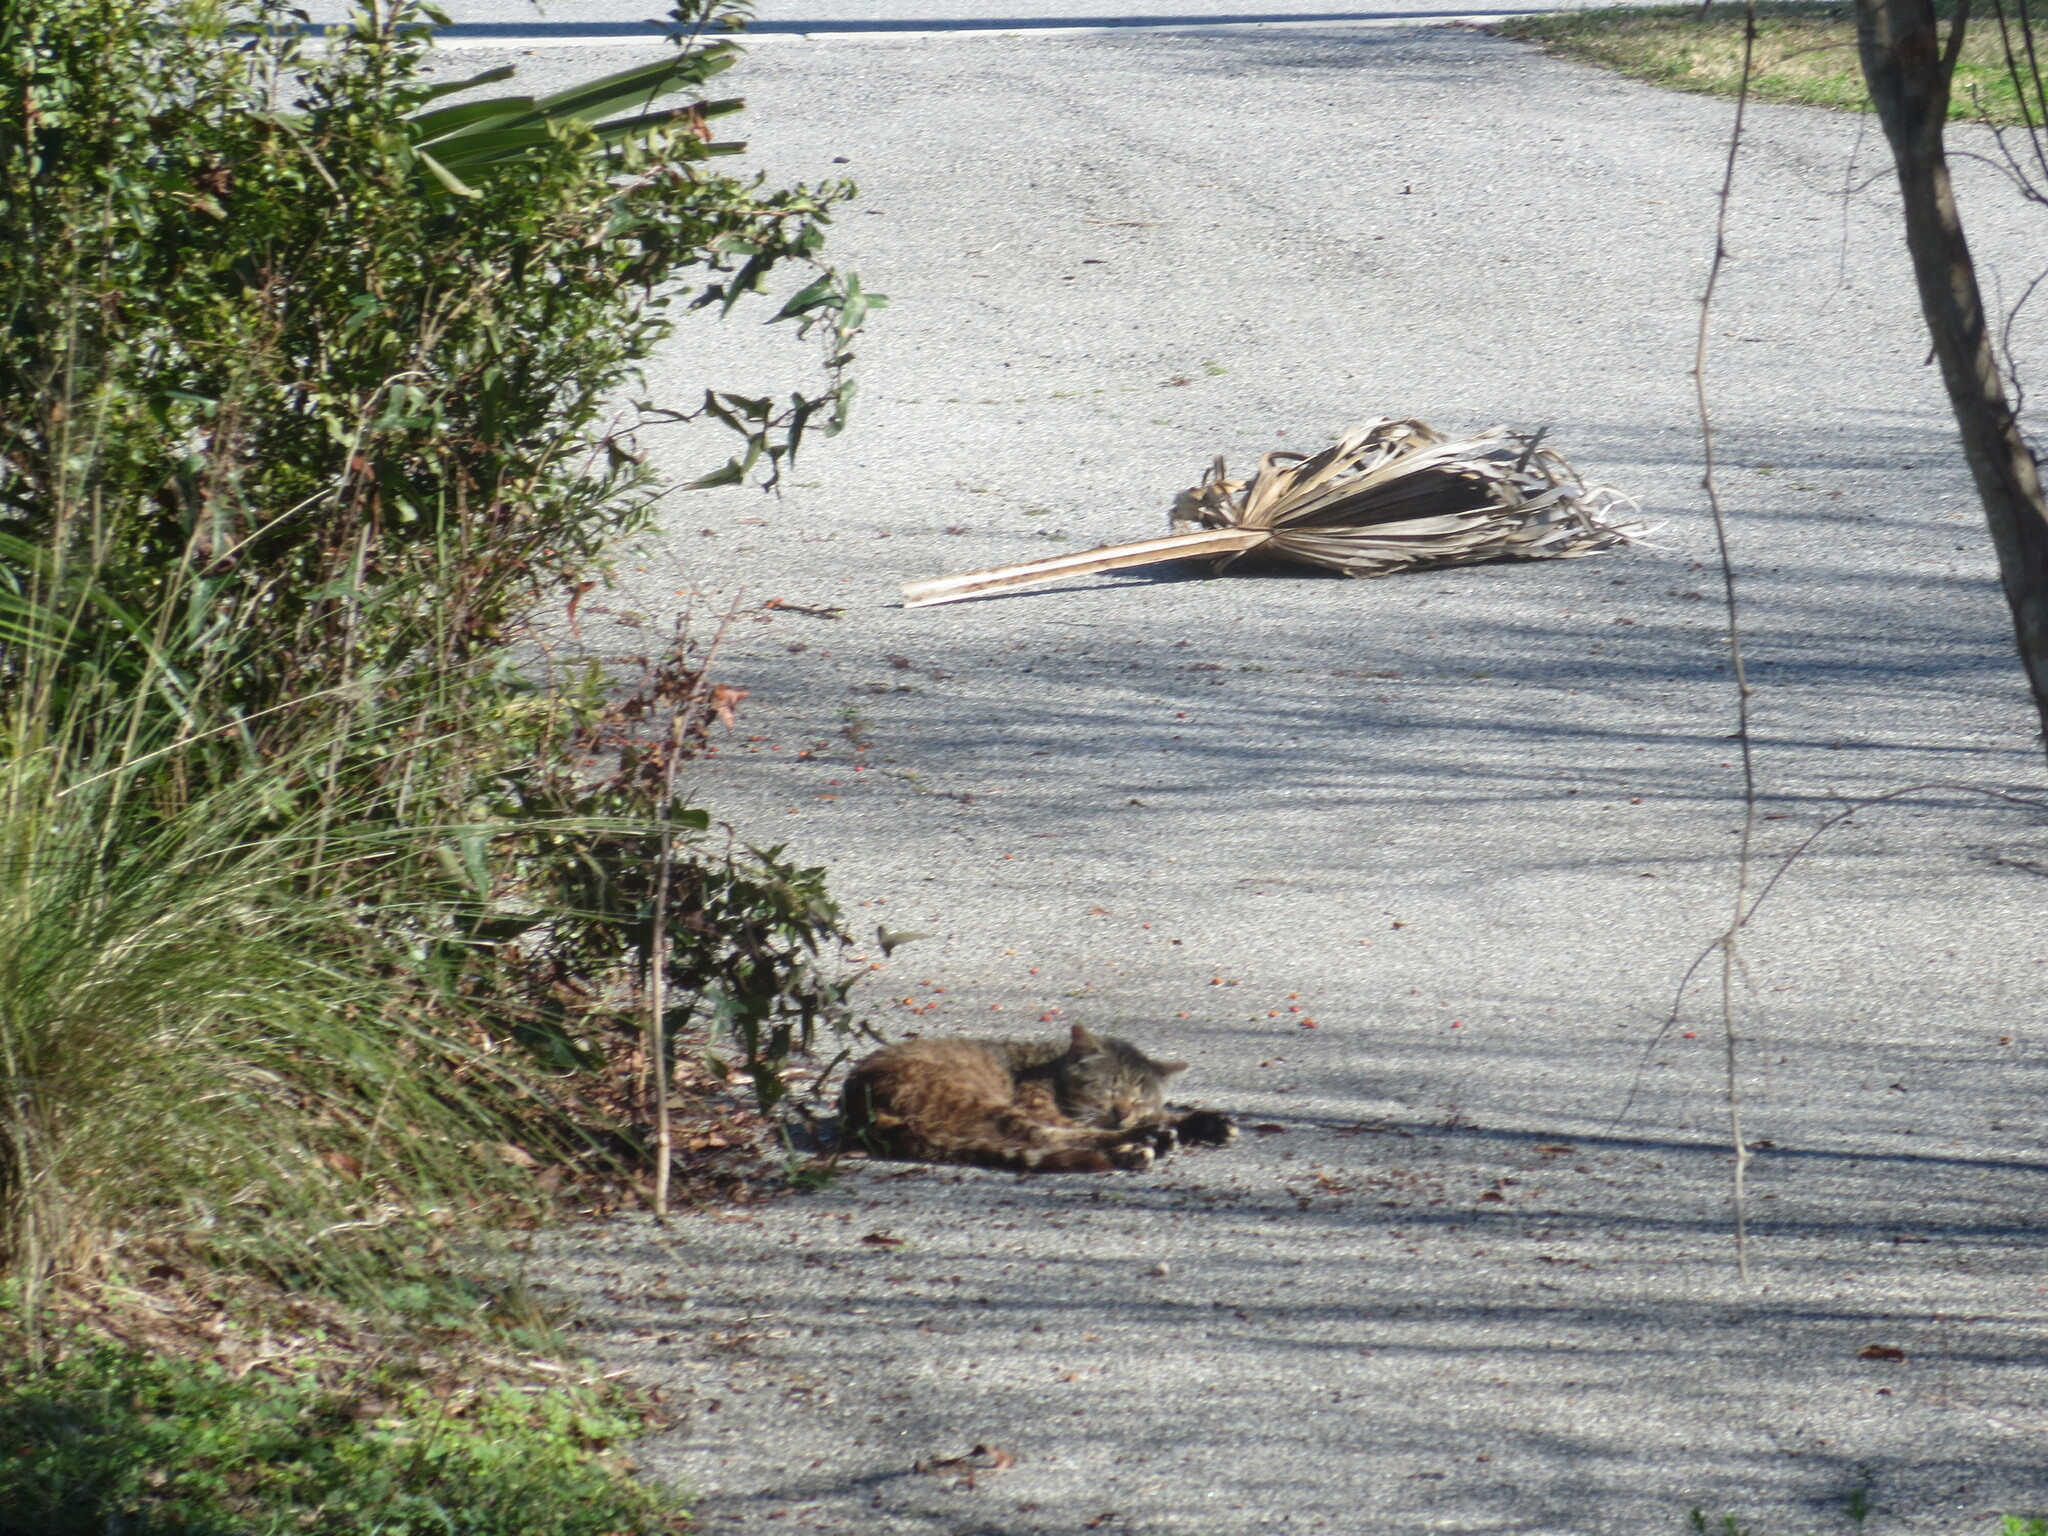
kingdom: Animalia
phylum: Chordata
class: Mammalia
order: Carnivora
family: Felidae
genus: Felis
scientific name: Felis catus
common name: Domestic cat
